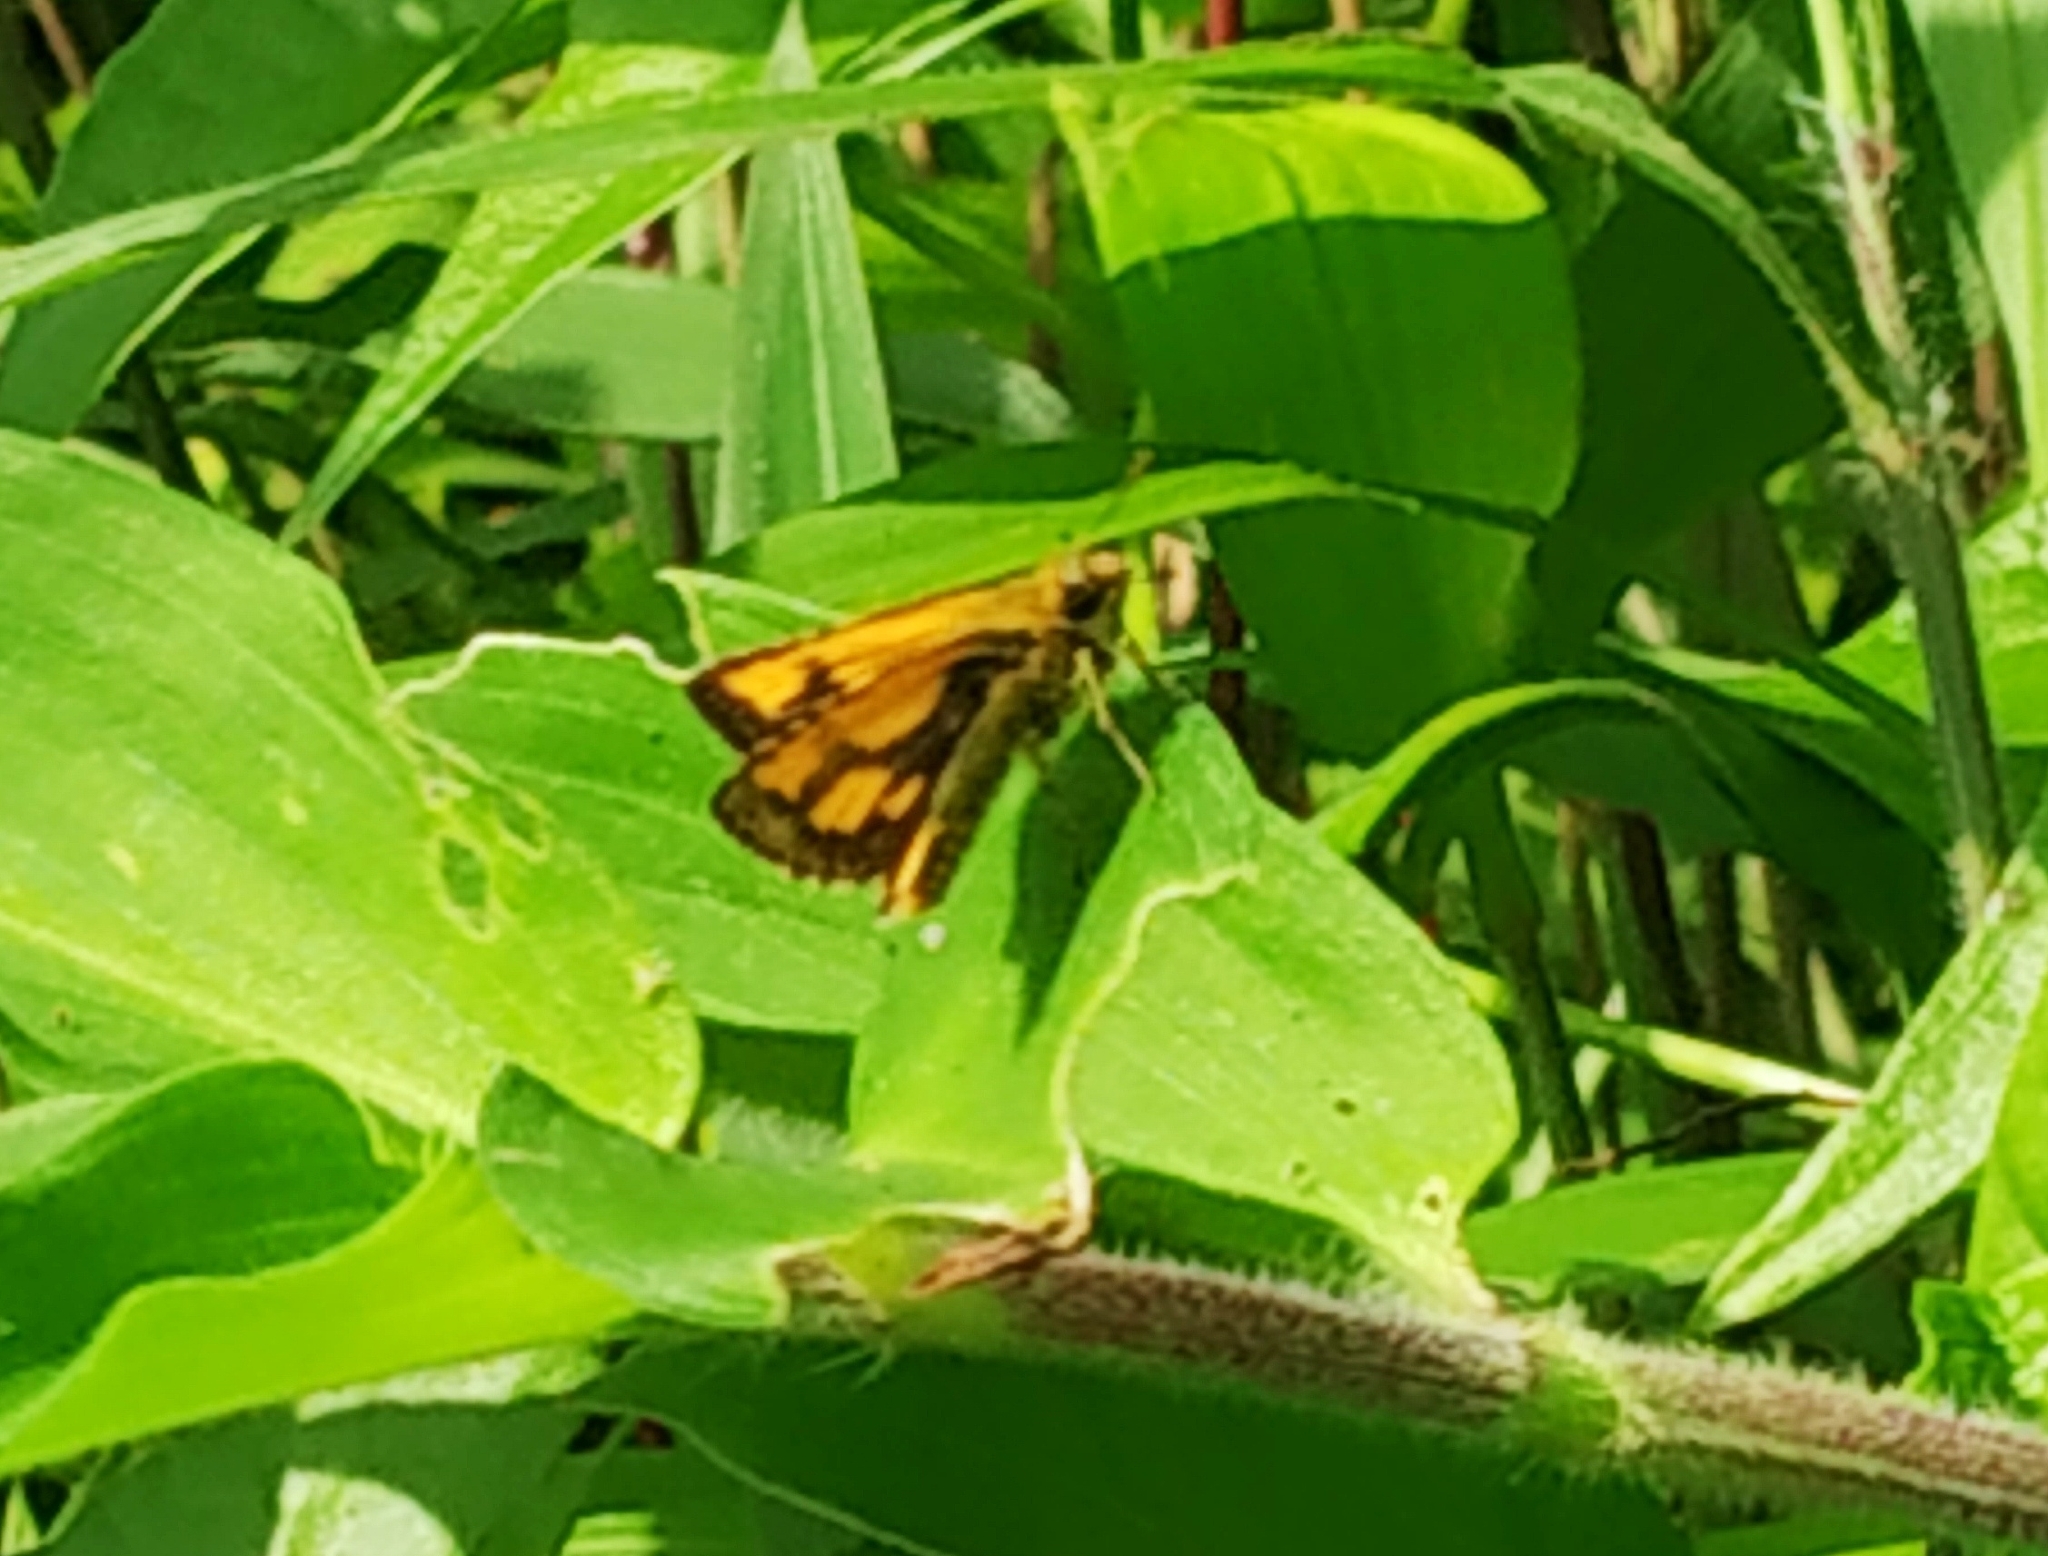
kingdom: Animalia
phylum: Arthropoda
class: Insecta
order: Lepidoptera
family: Hesperiidae
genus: Ampittia
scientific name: Ampittia dioscorides
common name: Common bush hopper
